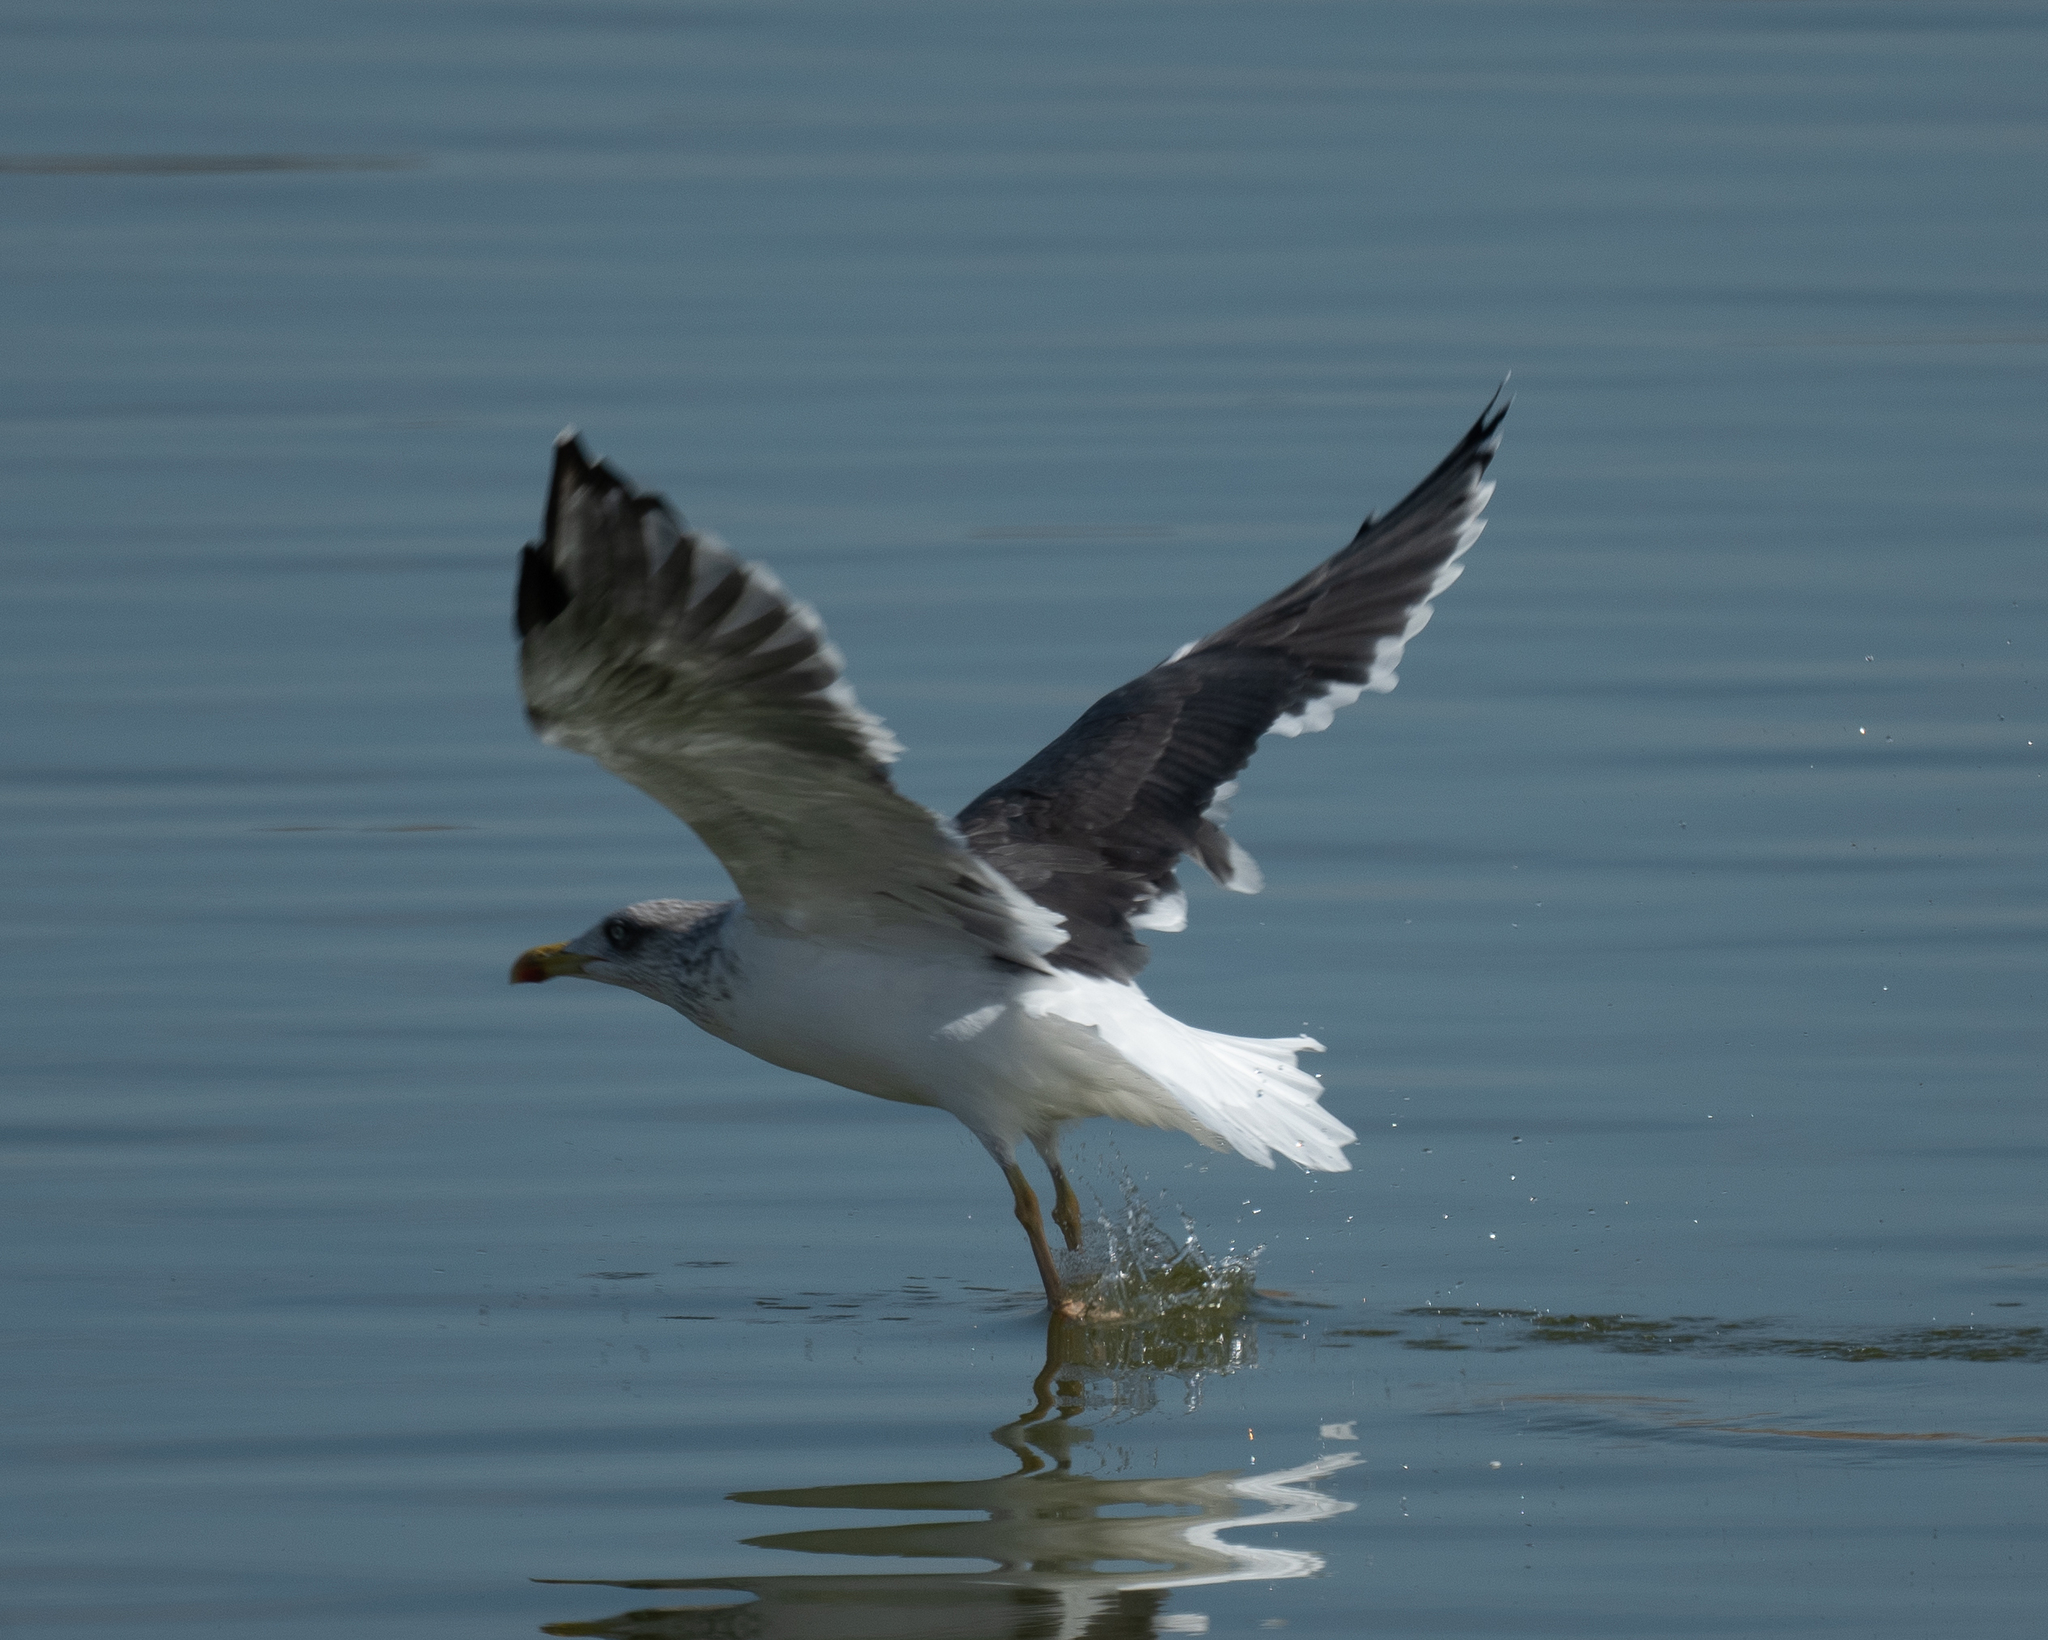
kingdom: Animalia
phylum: Chordata
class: Aves
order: Charadriiformes
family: Laridae
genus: Larus
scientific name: Larus fuscus
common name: Lesser black-backed gull
